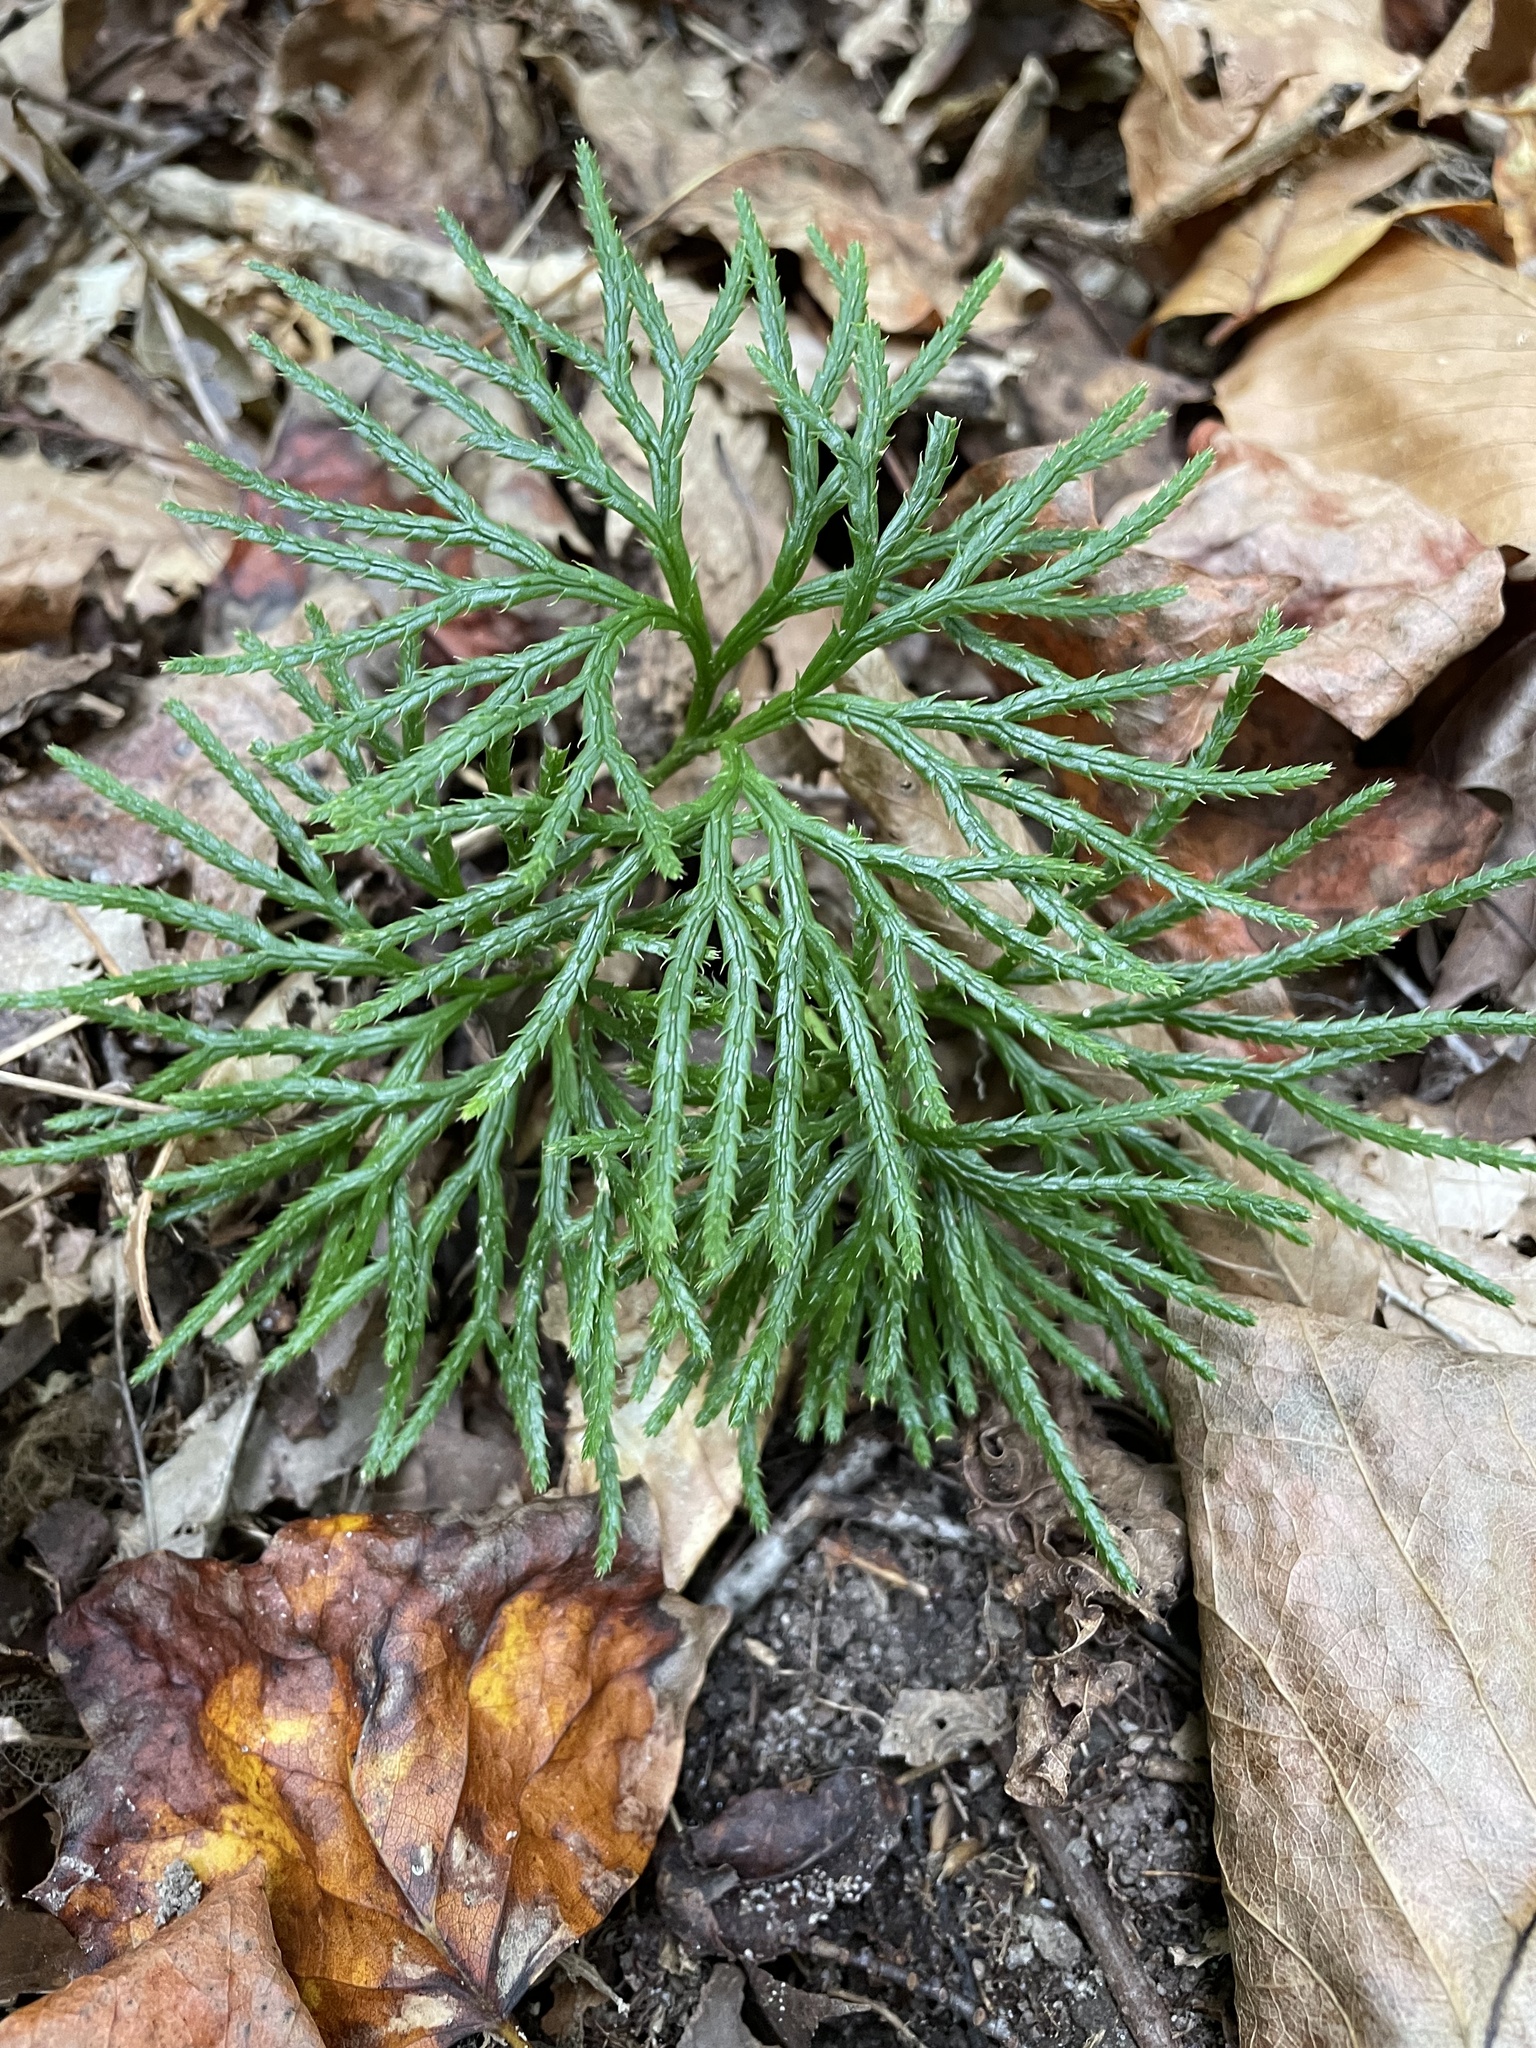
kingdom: Plantae
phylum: Tracheophyta
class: Lycopodiopsida
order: Lycopodiales
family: Lycopodiaceae
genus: Diphasiastrum
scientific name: Diphasiastrum digitatum
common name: Southern running-pine
